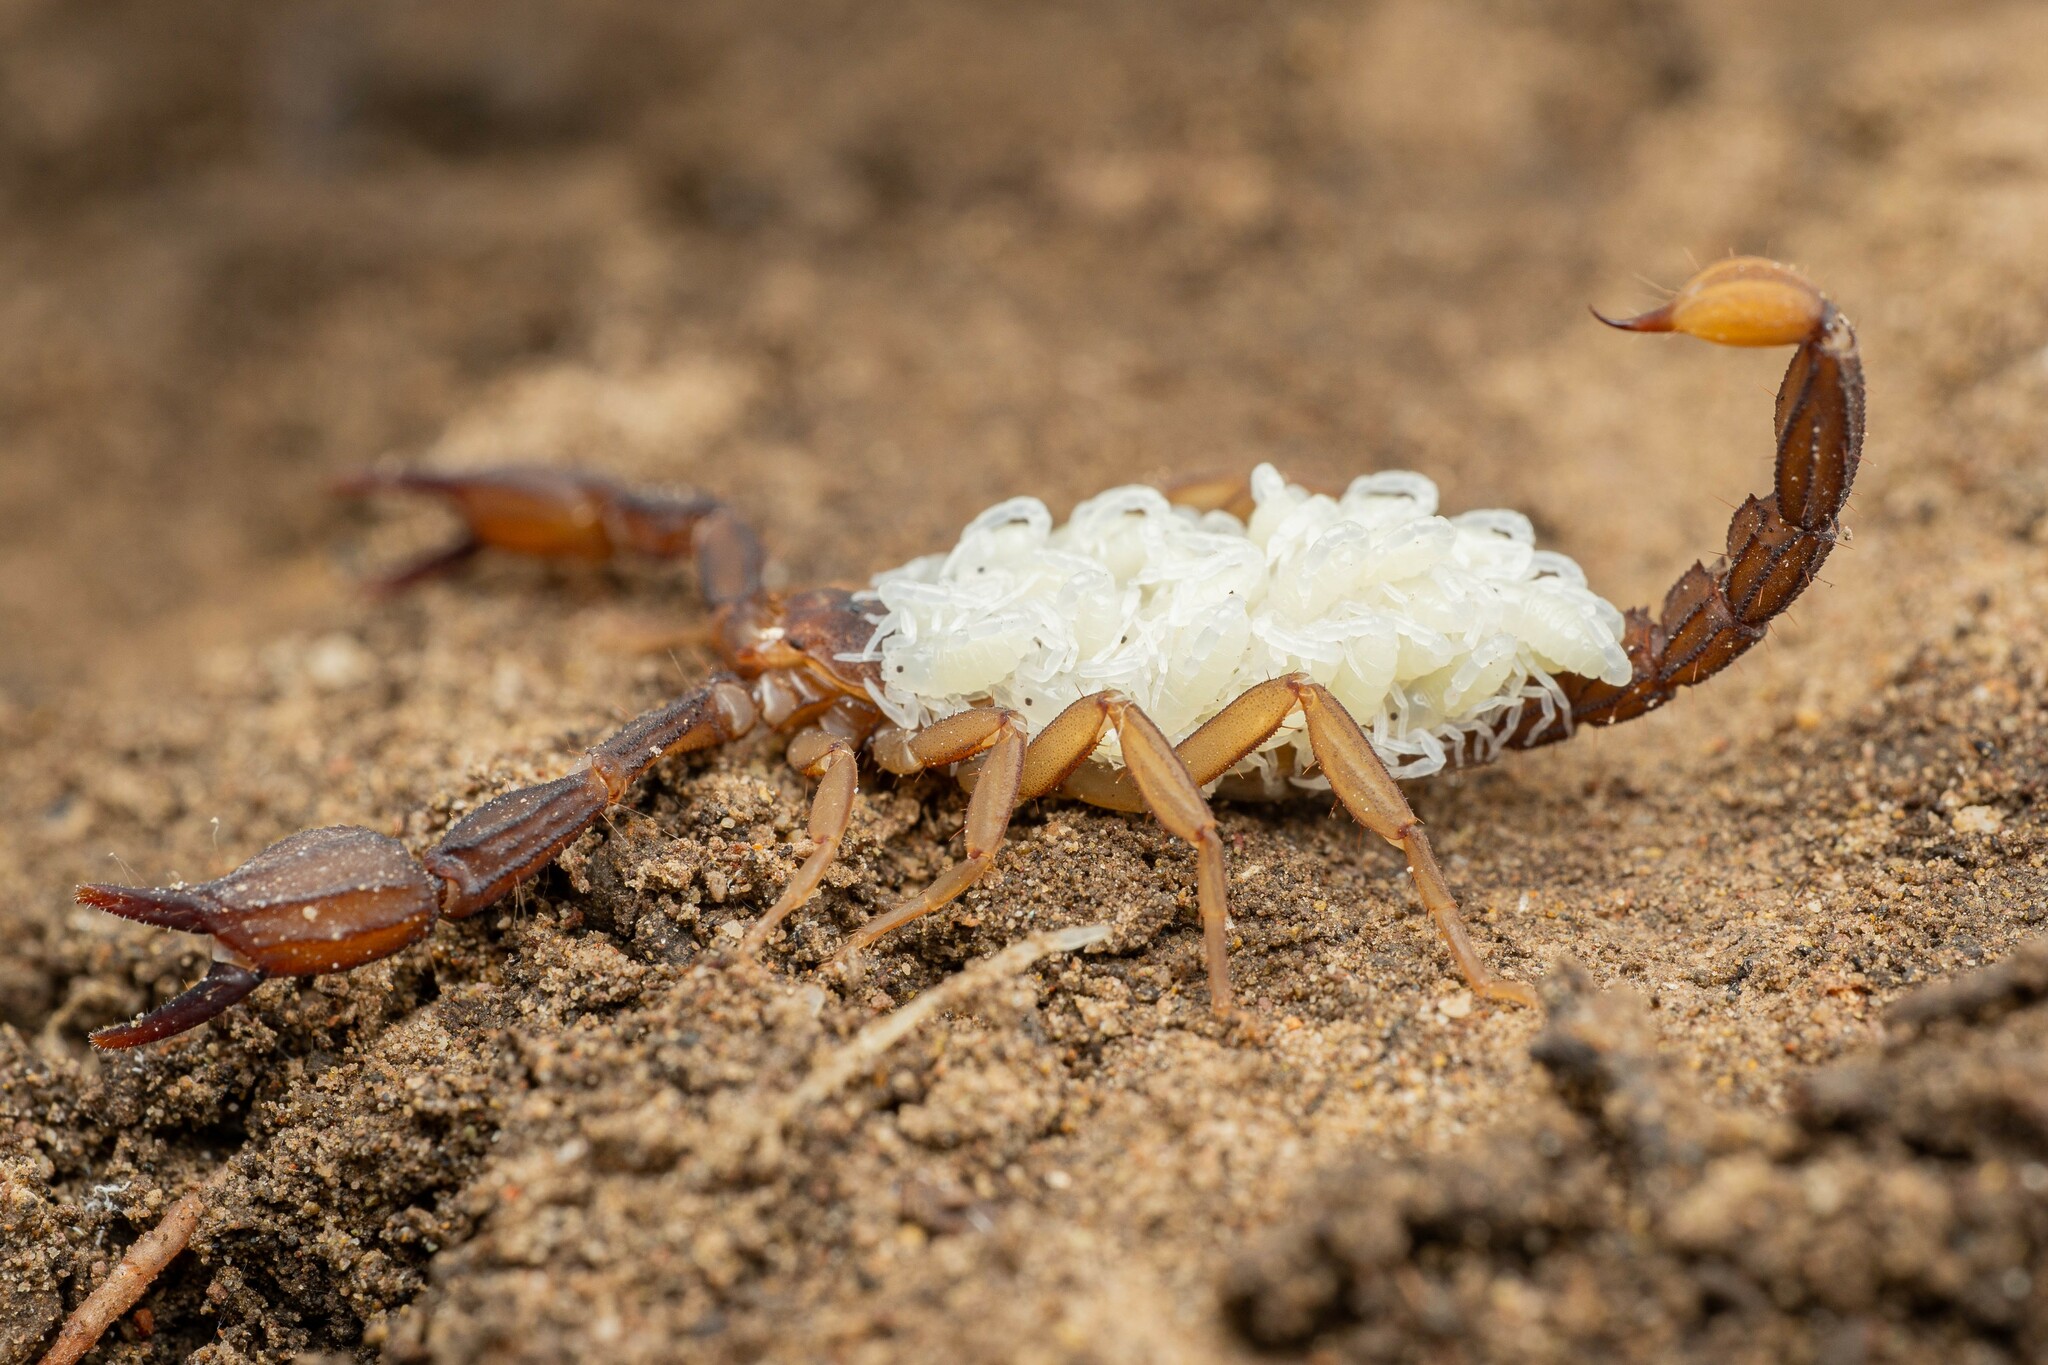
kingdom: Animalia
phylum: Arthropoda
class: Arachnida
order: Scorpiones
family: Vaejovidae
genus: Pseudouroctonus
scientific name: Pseudouroctonus apacheanus
